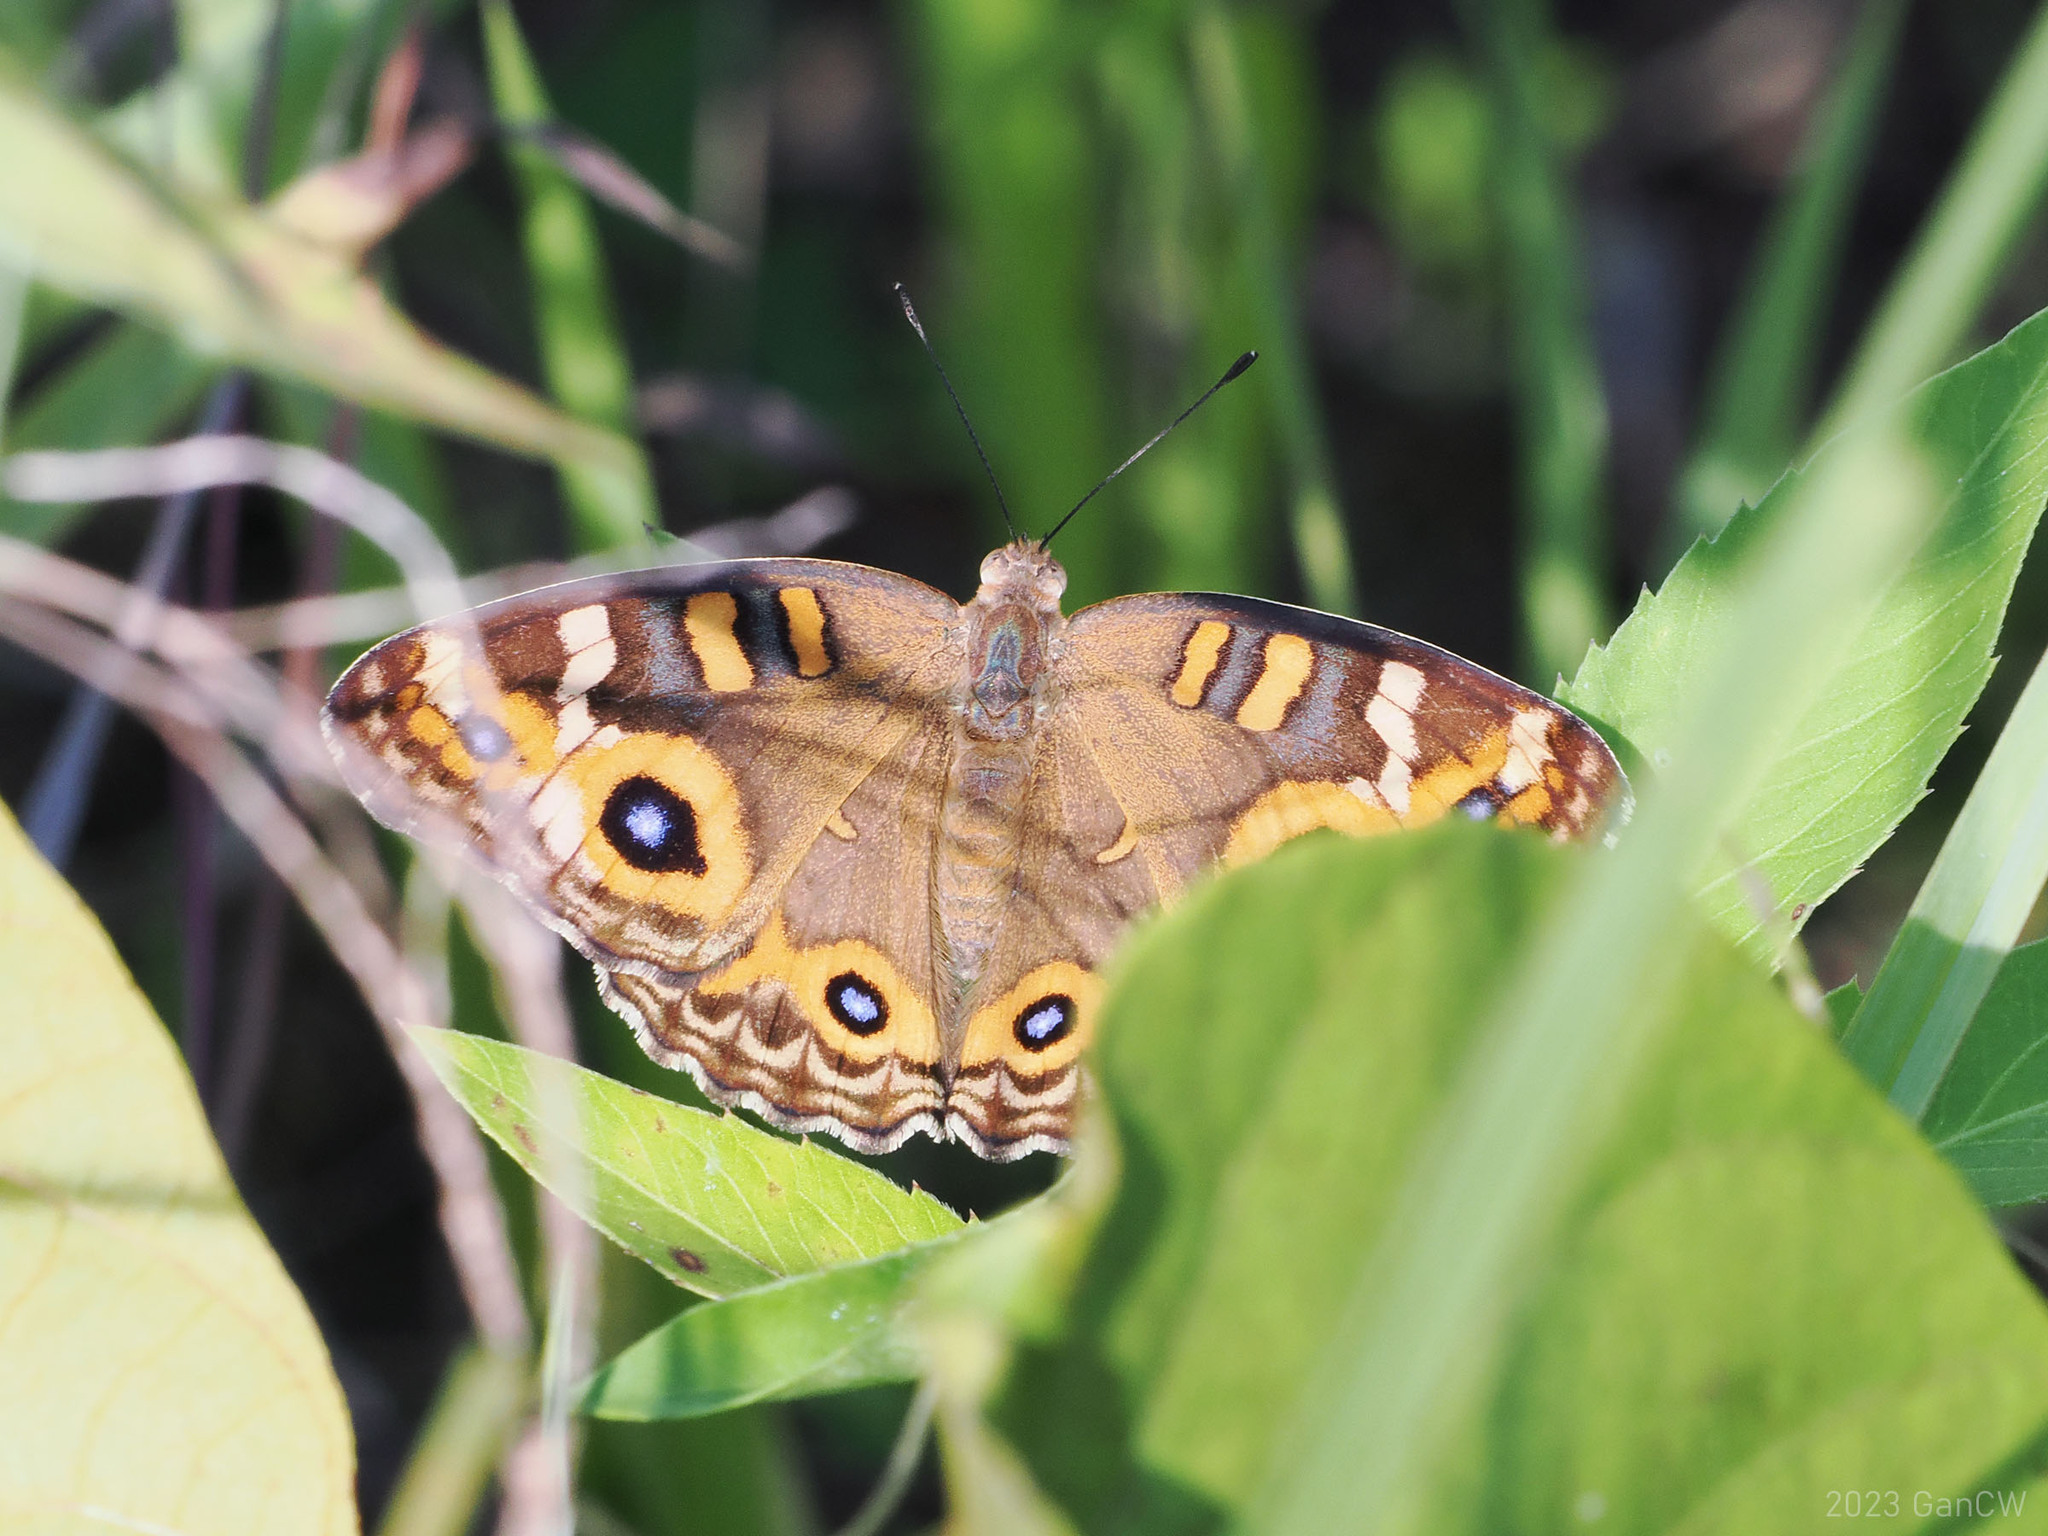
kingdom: Animalia
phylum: Arthropoda
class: Insecta
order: Lepidoptera
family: Nymphalidae
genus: Junonia
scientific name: Junonia villida
